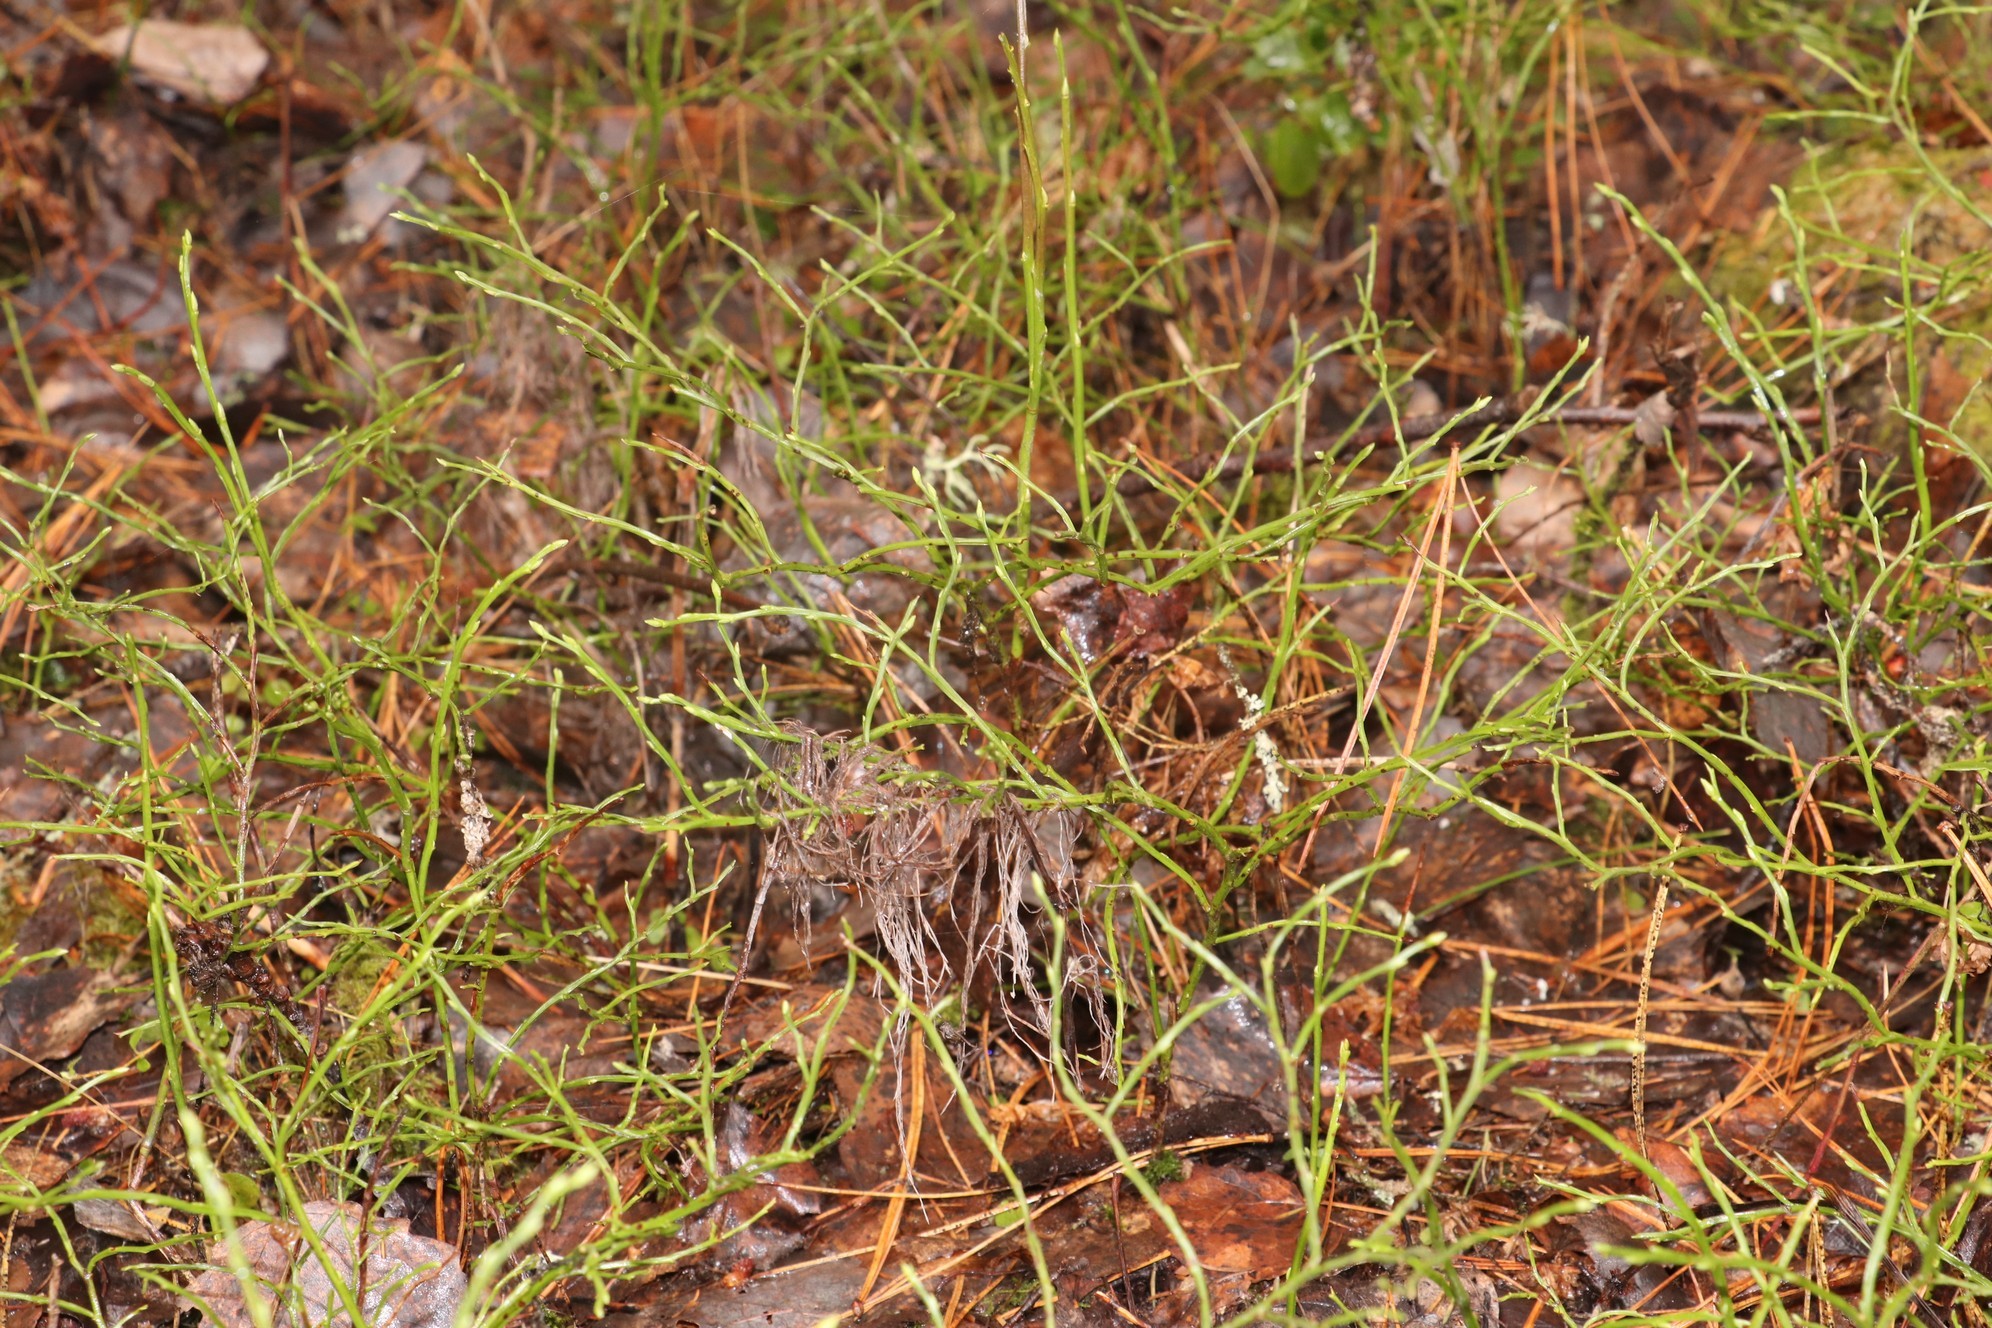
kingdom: Plantae
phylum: Tracheophyta
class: Magnoliopsida
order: Ericales
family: Ericaceae
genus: Vaccinium
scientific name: Vaccinium uliginosum
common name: Bog bilberry
